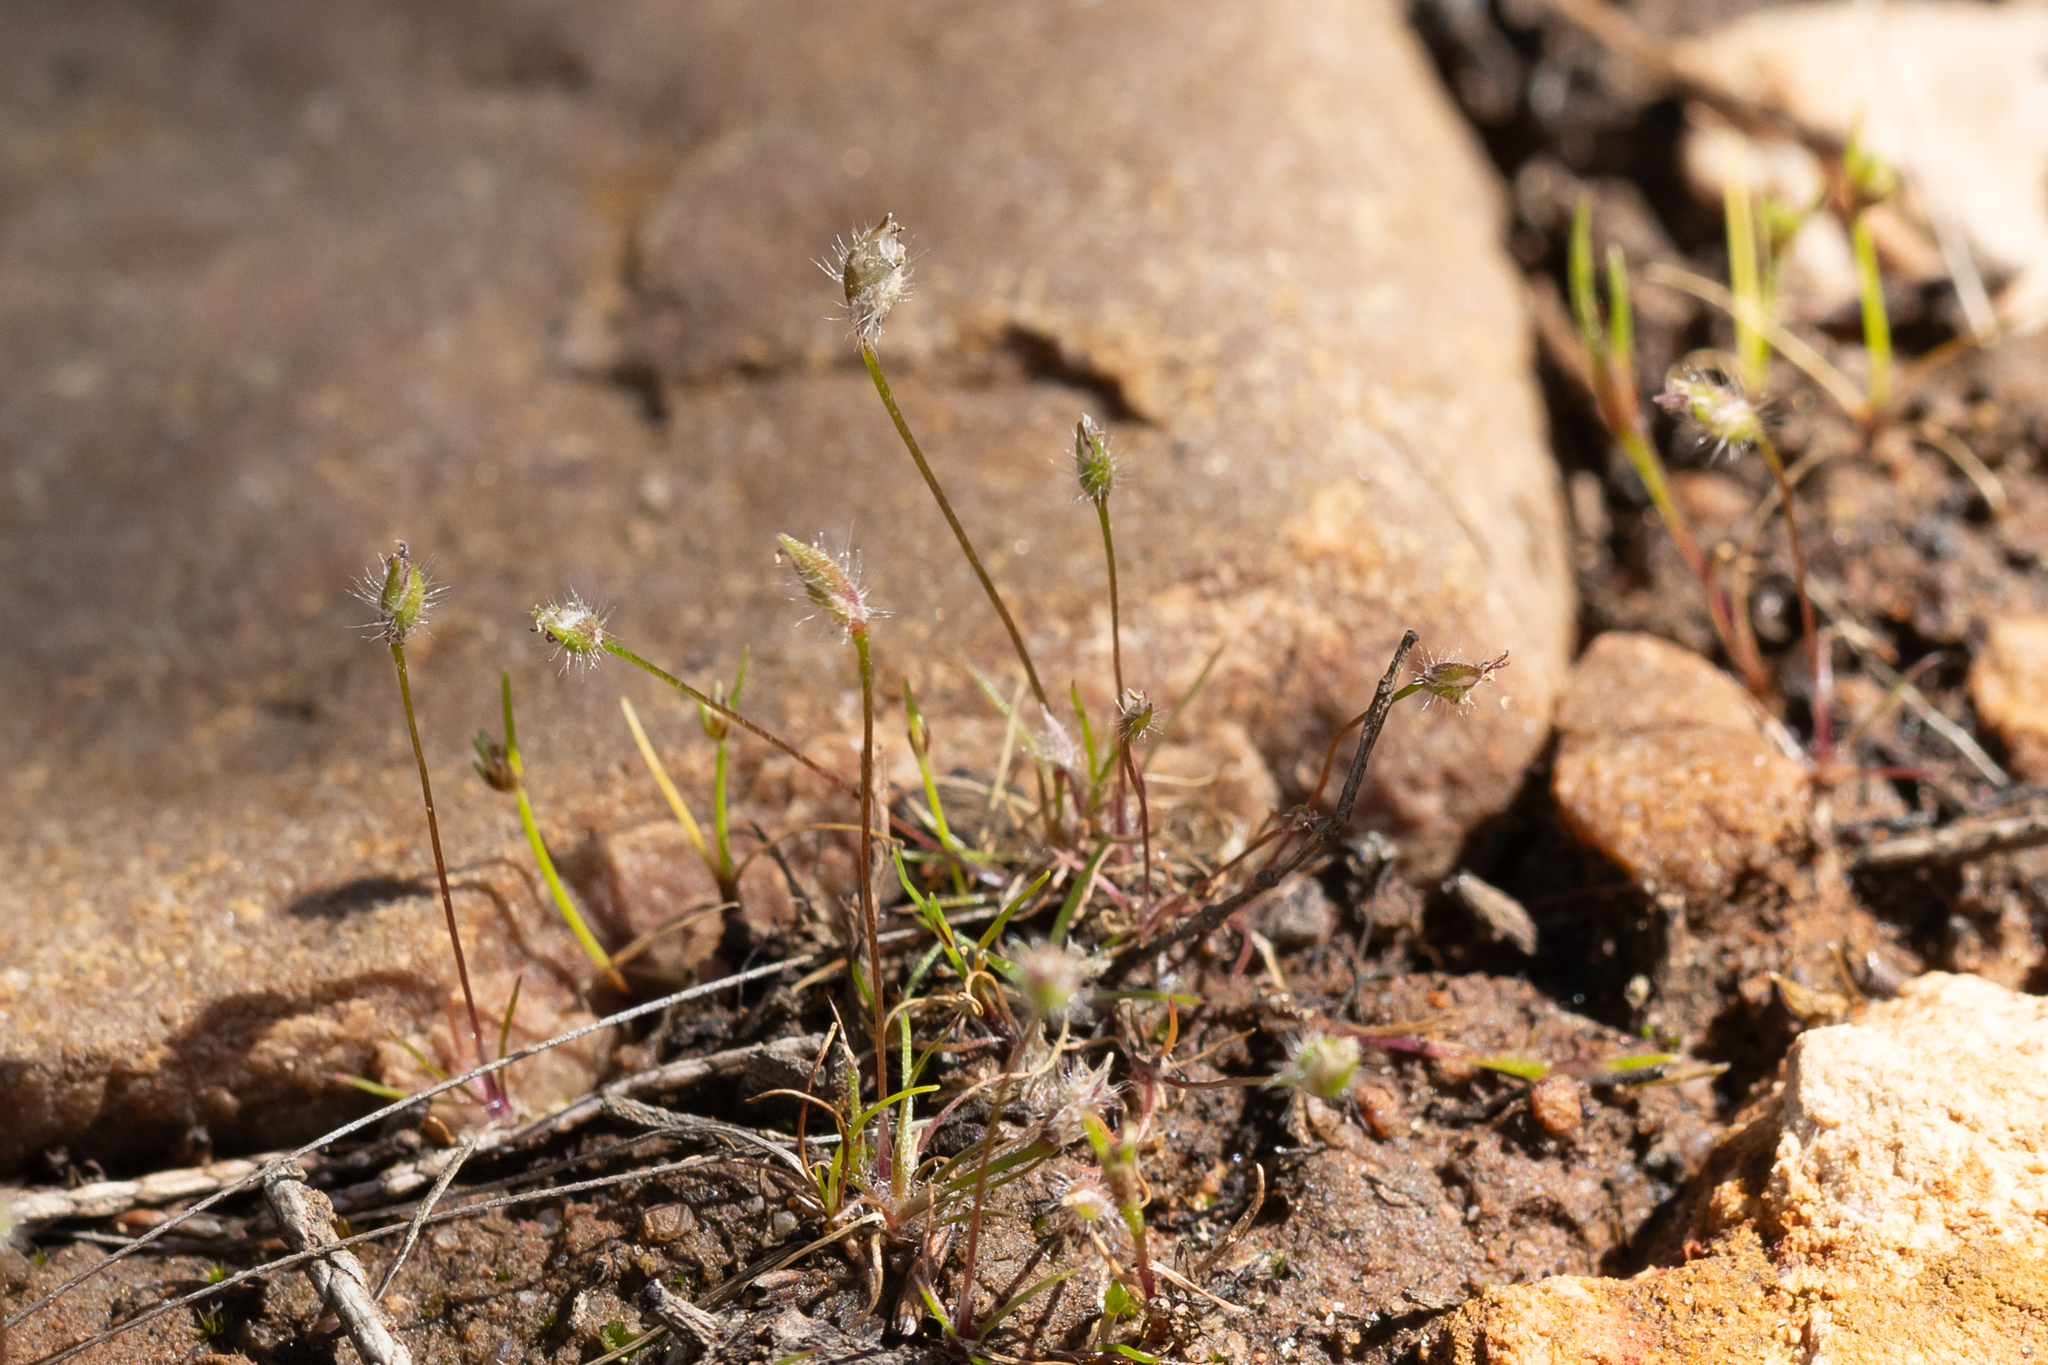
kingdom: Plantae
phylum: Tracheophyta
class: Liliopsida
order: Poales
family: Restionaceae
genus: Centrolepis
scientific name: Centrolepis strigosa
